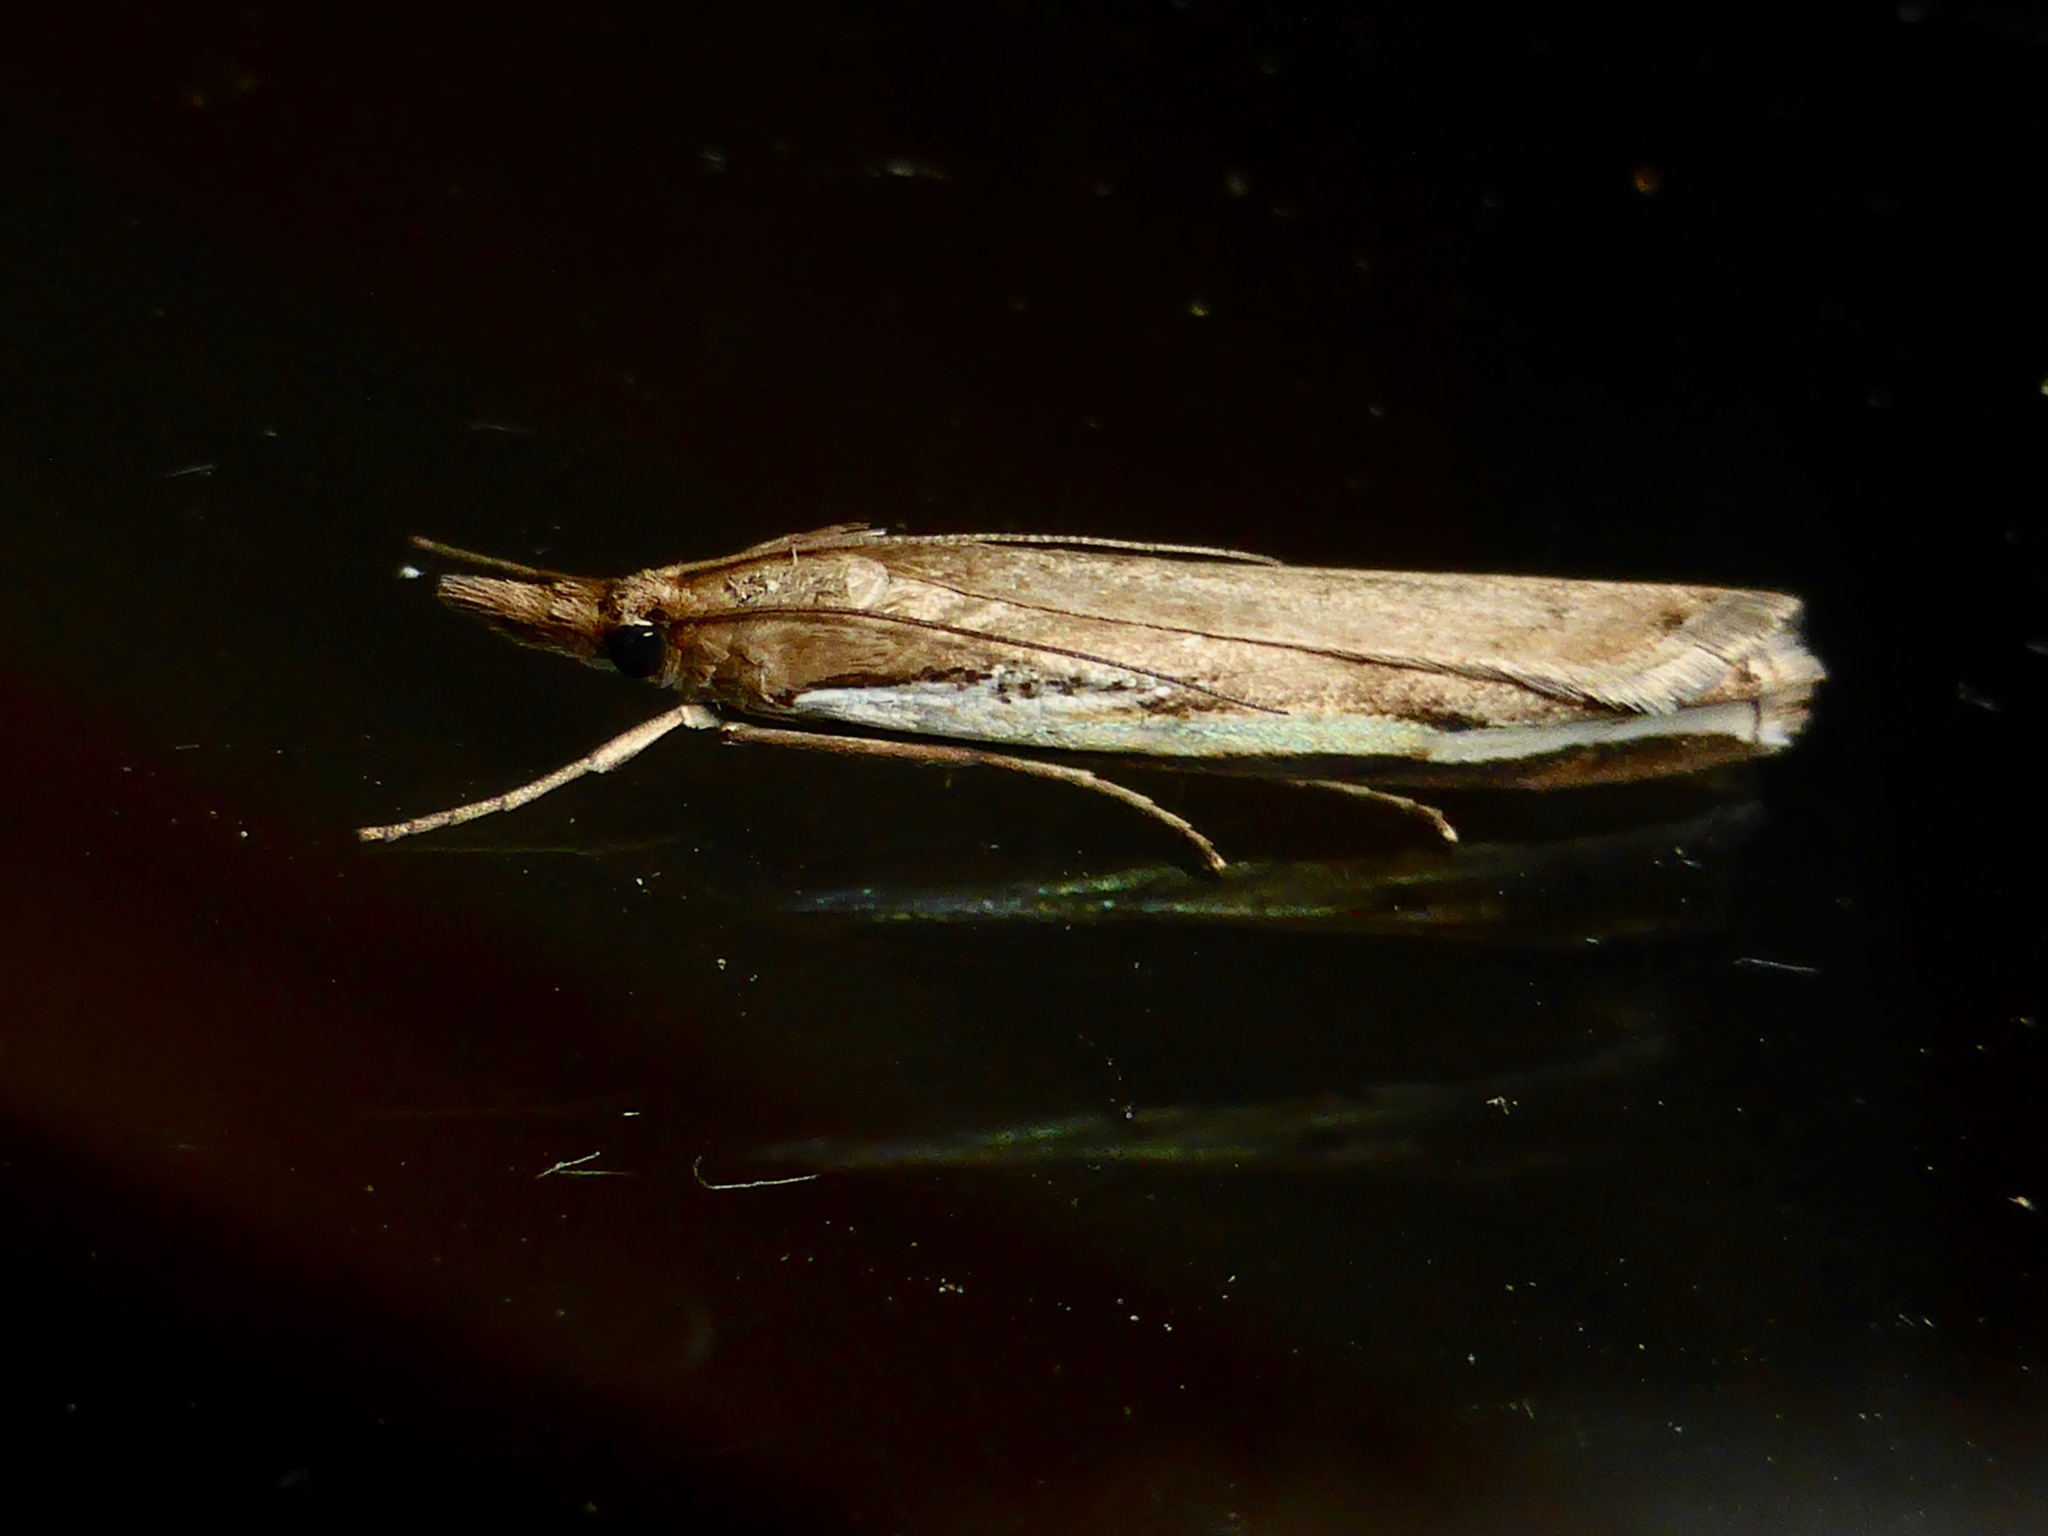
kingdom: Animalia
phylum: Arthropoda
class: Insecta
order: Lepidoptera
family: Crambidae
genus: Orocrambus
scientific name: Orocrambus flexuosellus
